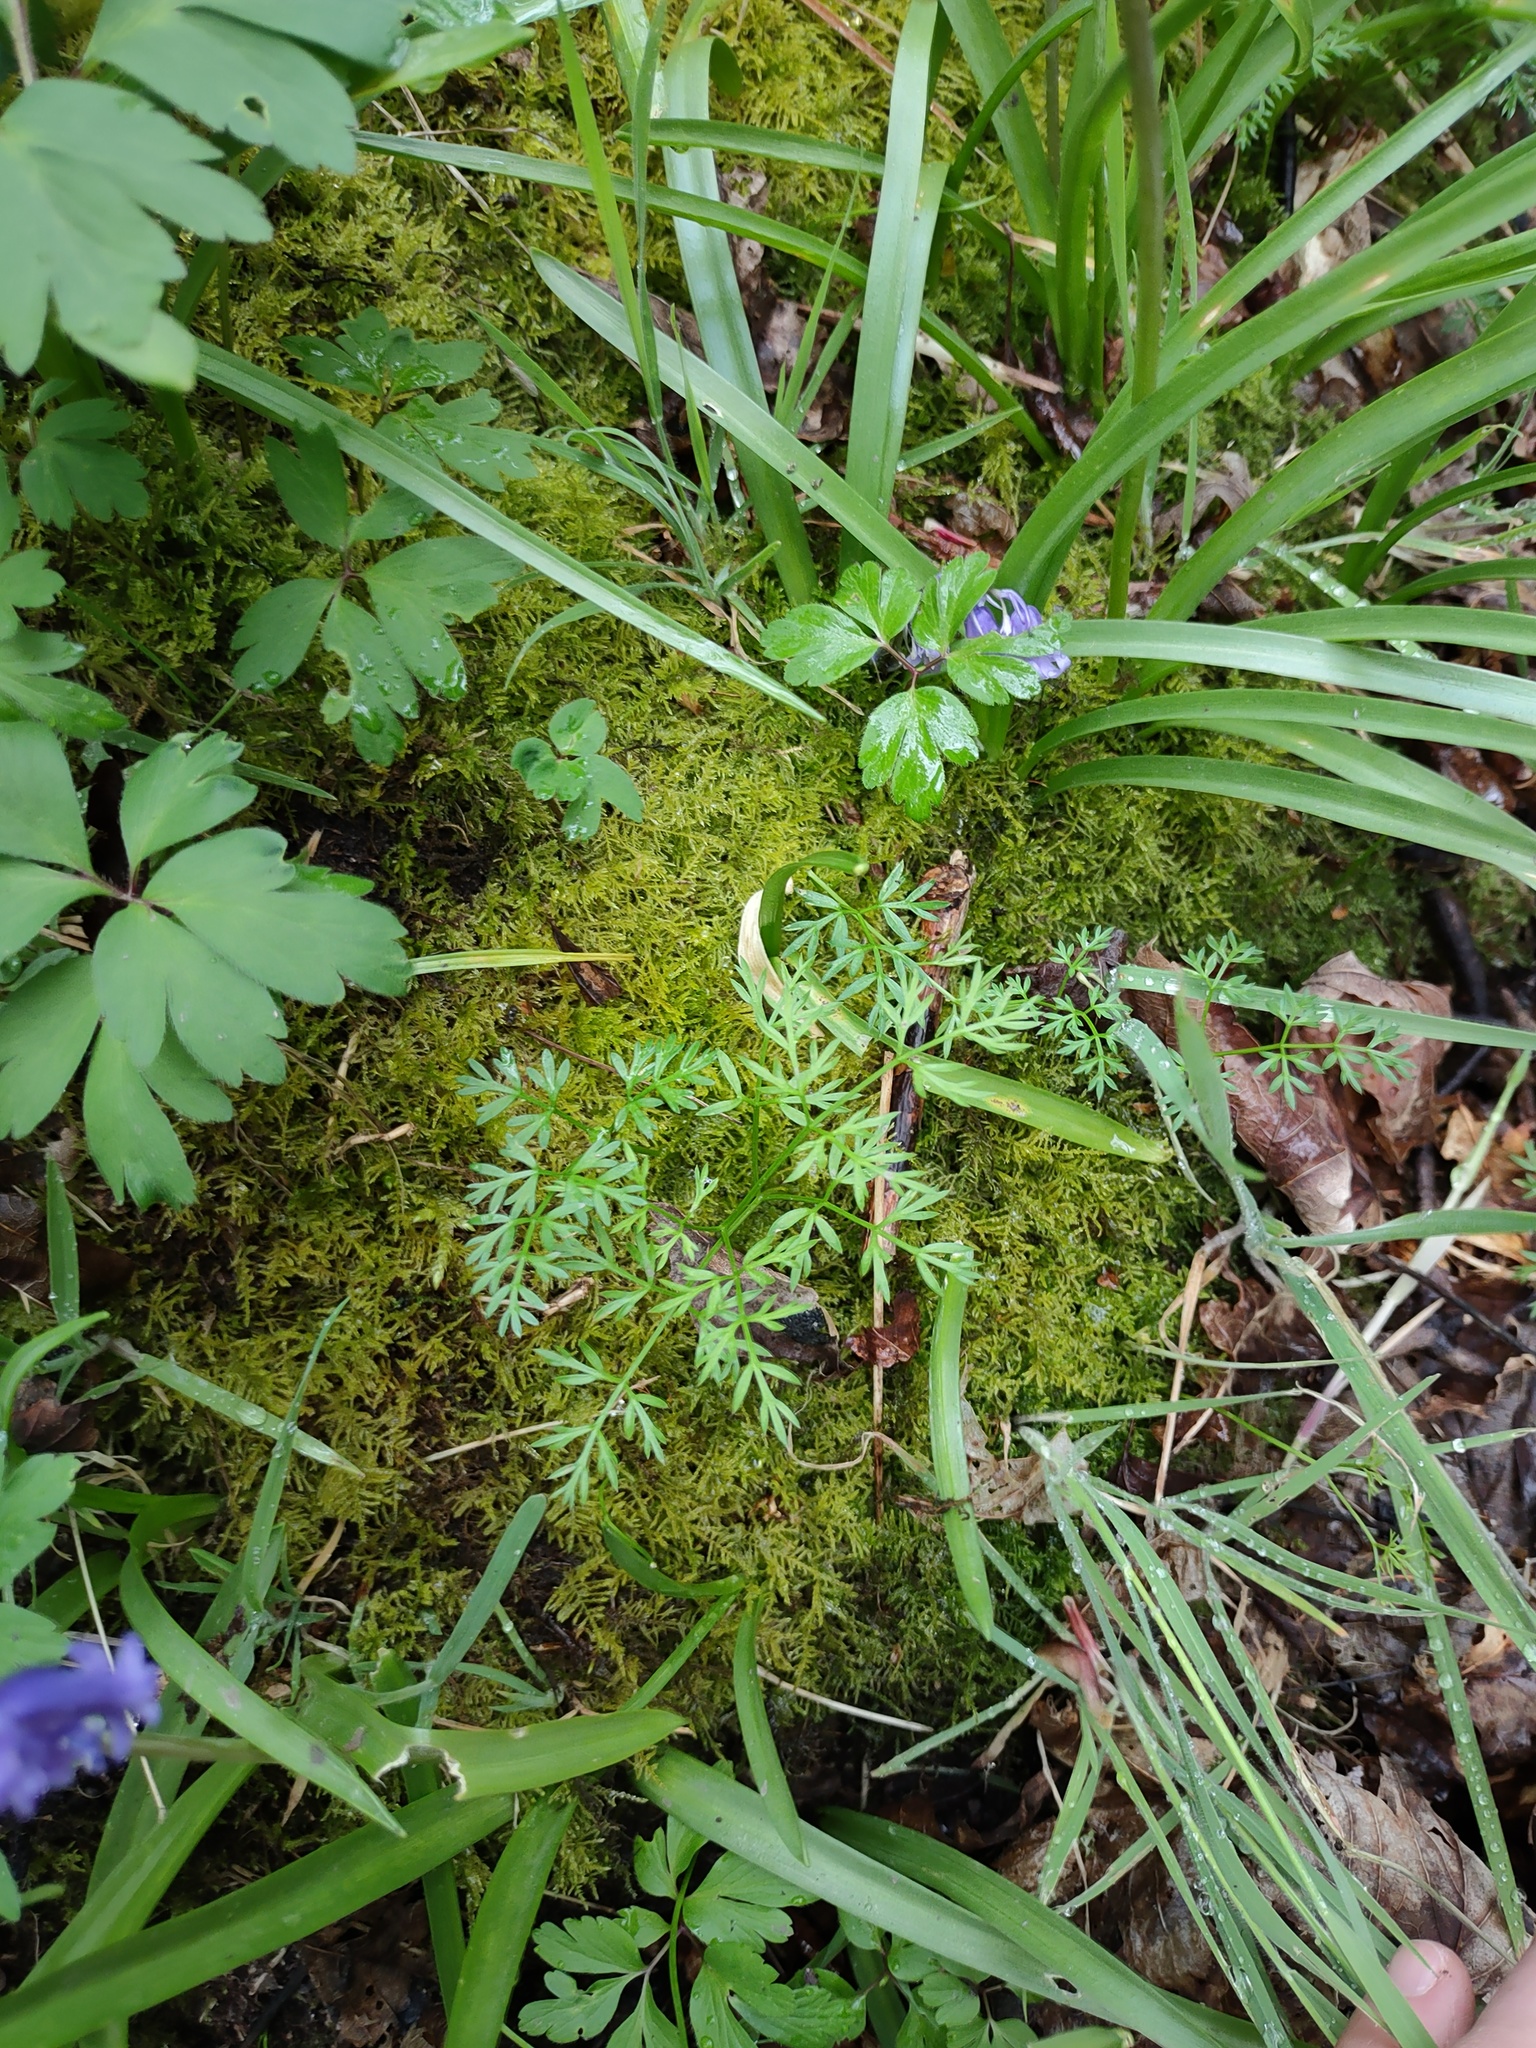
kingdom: Plantae
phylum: Tracheophyta
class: Magnoliopsida
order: Apiales
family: Apiaceae
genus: Conopodium
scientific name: Conopodium majus
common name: Pignut
